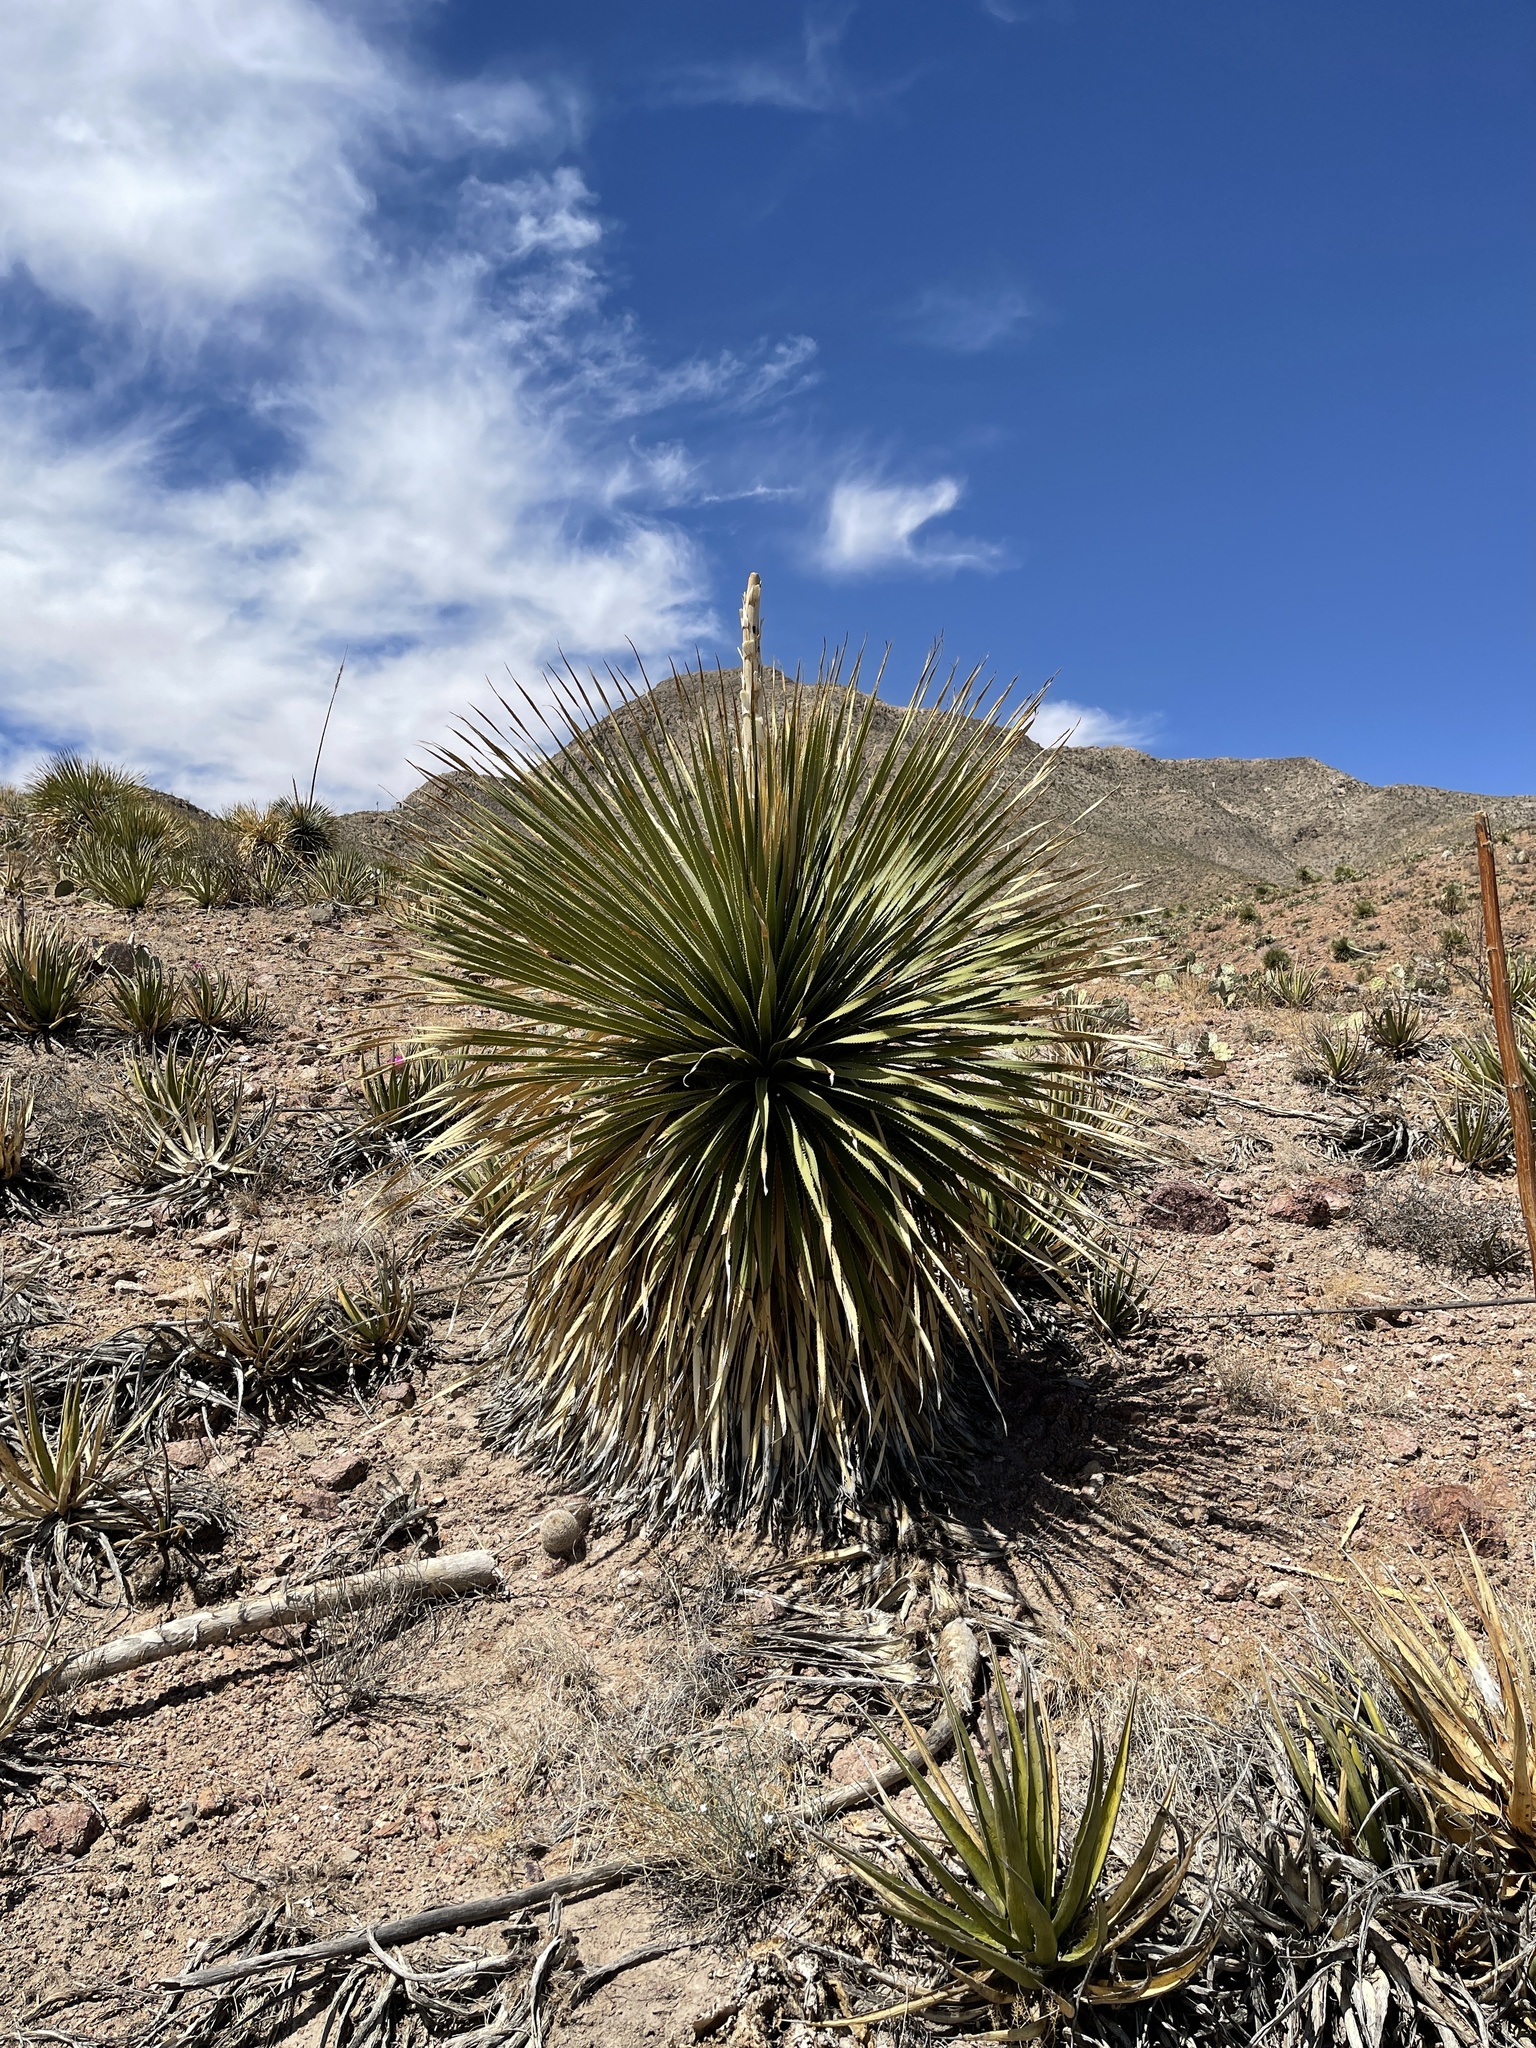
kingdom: Plantae
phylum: Tracheophyta
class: Liliopsida
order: Asparagales
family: Asparagaceae
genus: Dasylirion
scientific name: Dasylirion wheeleri
